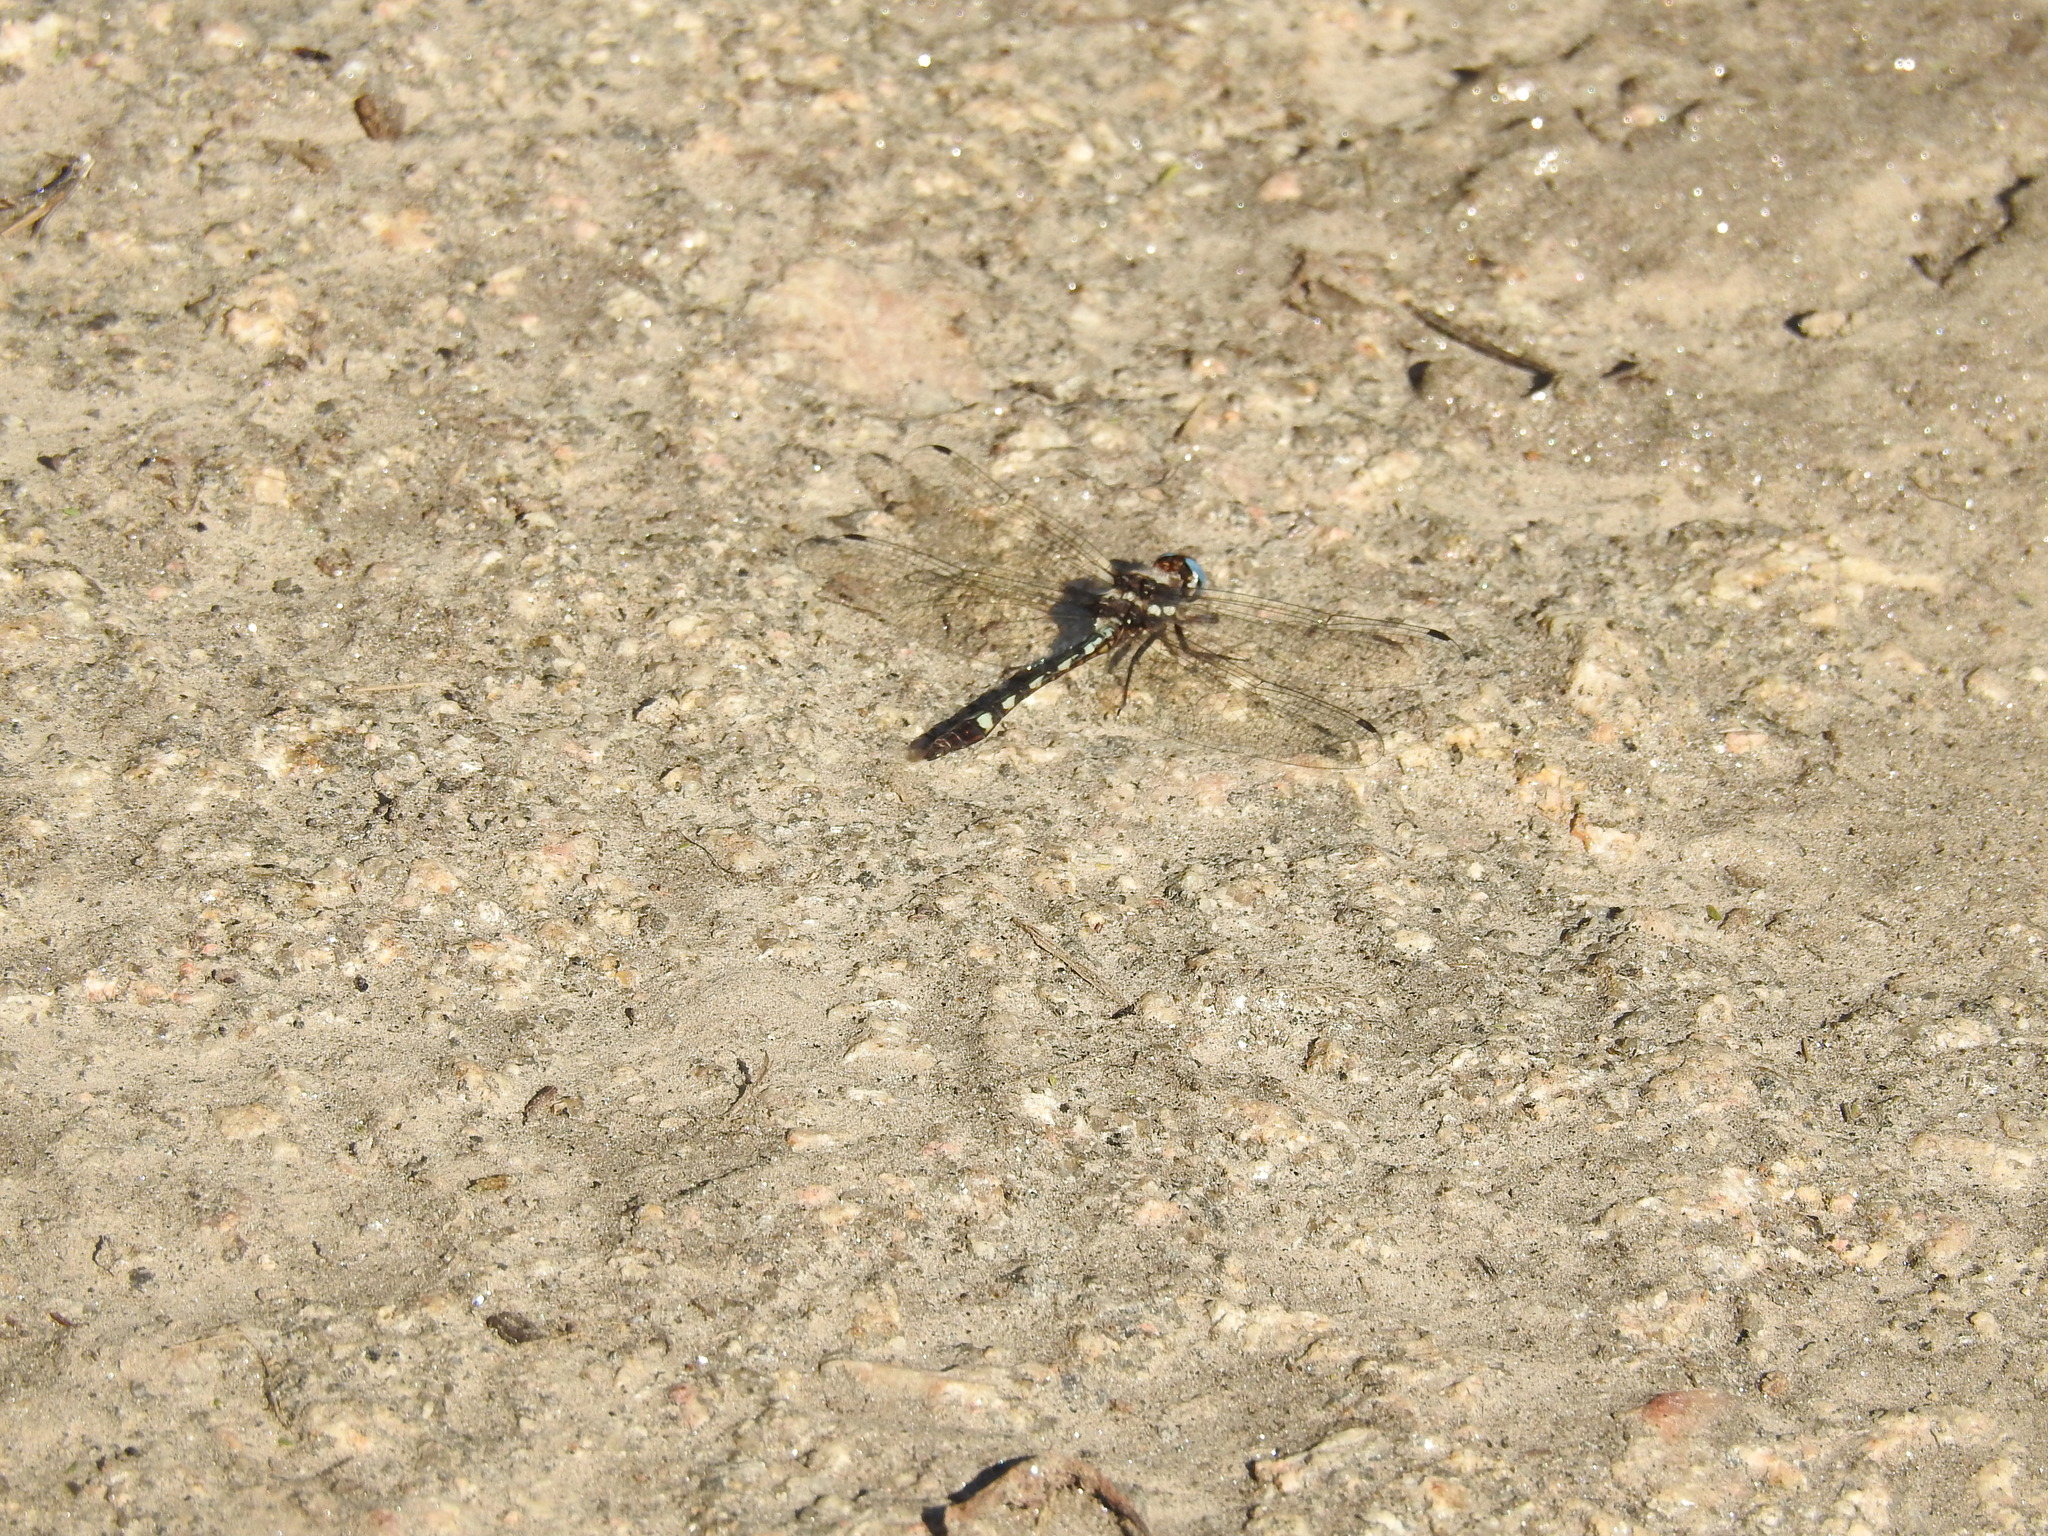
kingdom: Animalia
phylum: Arthropoda
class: Insecta
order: Odonata
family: Libellulidae
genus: Macrothemis
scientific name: Macrothemis imitans
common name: Ivory-striped sylph
